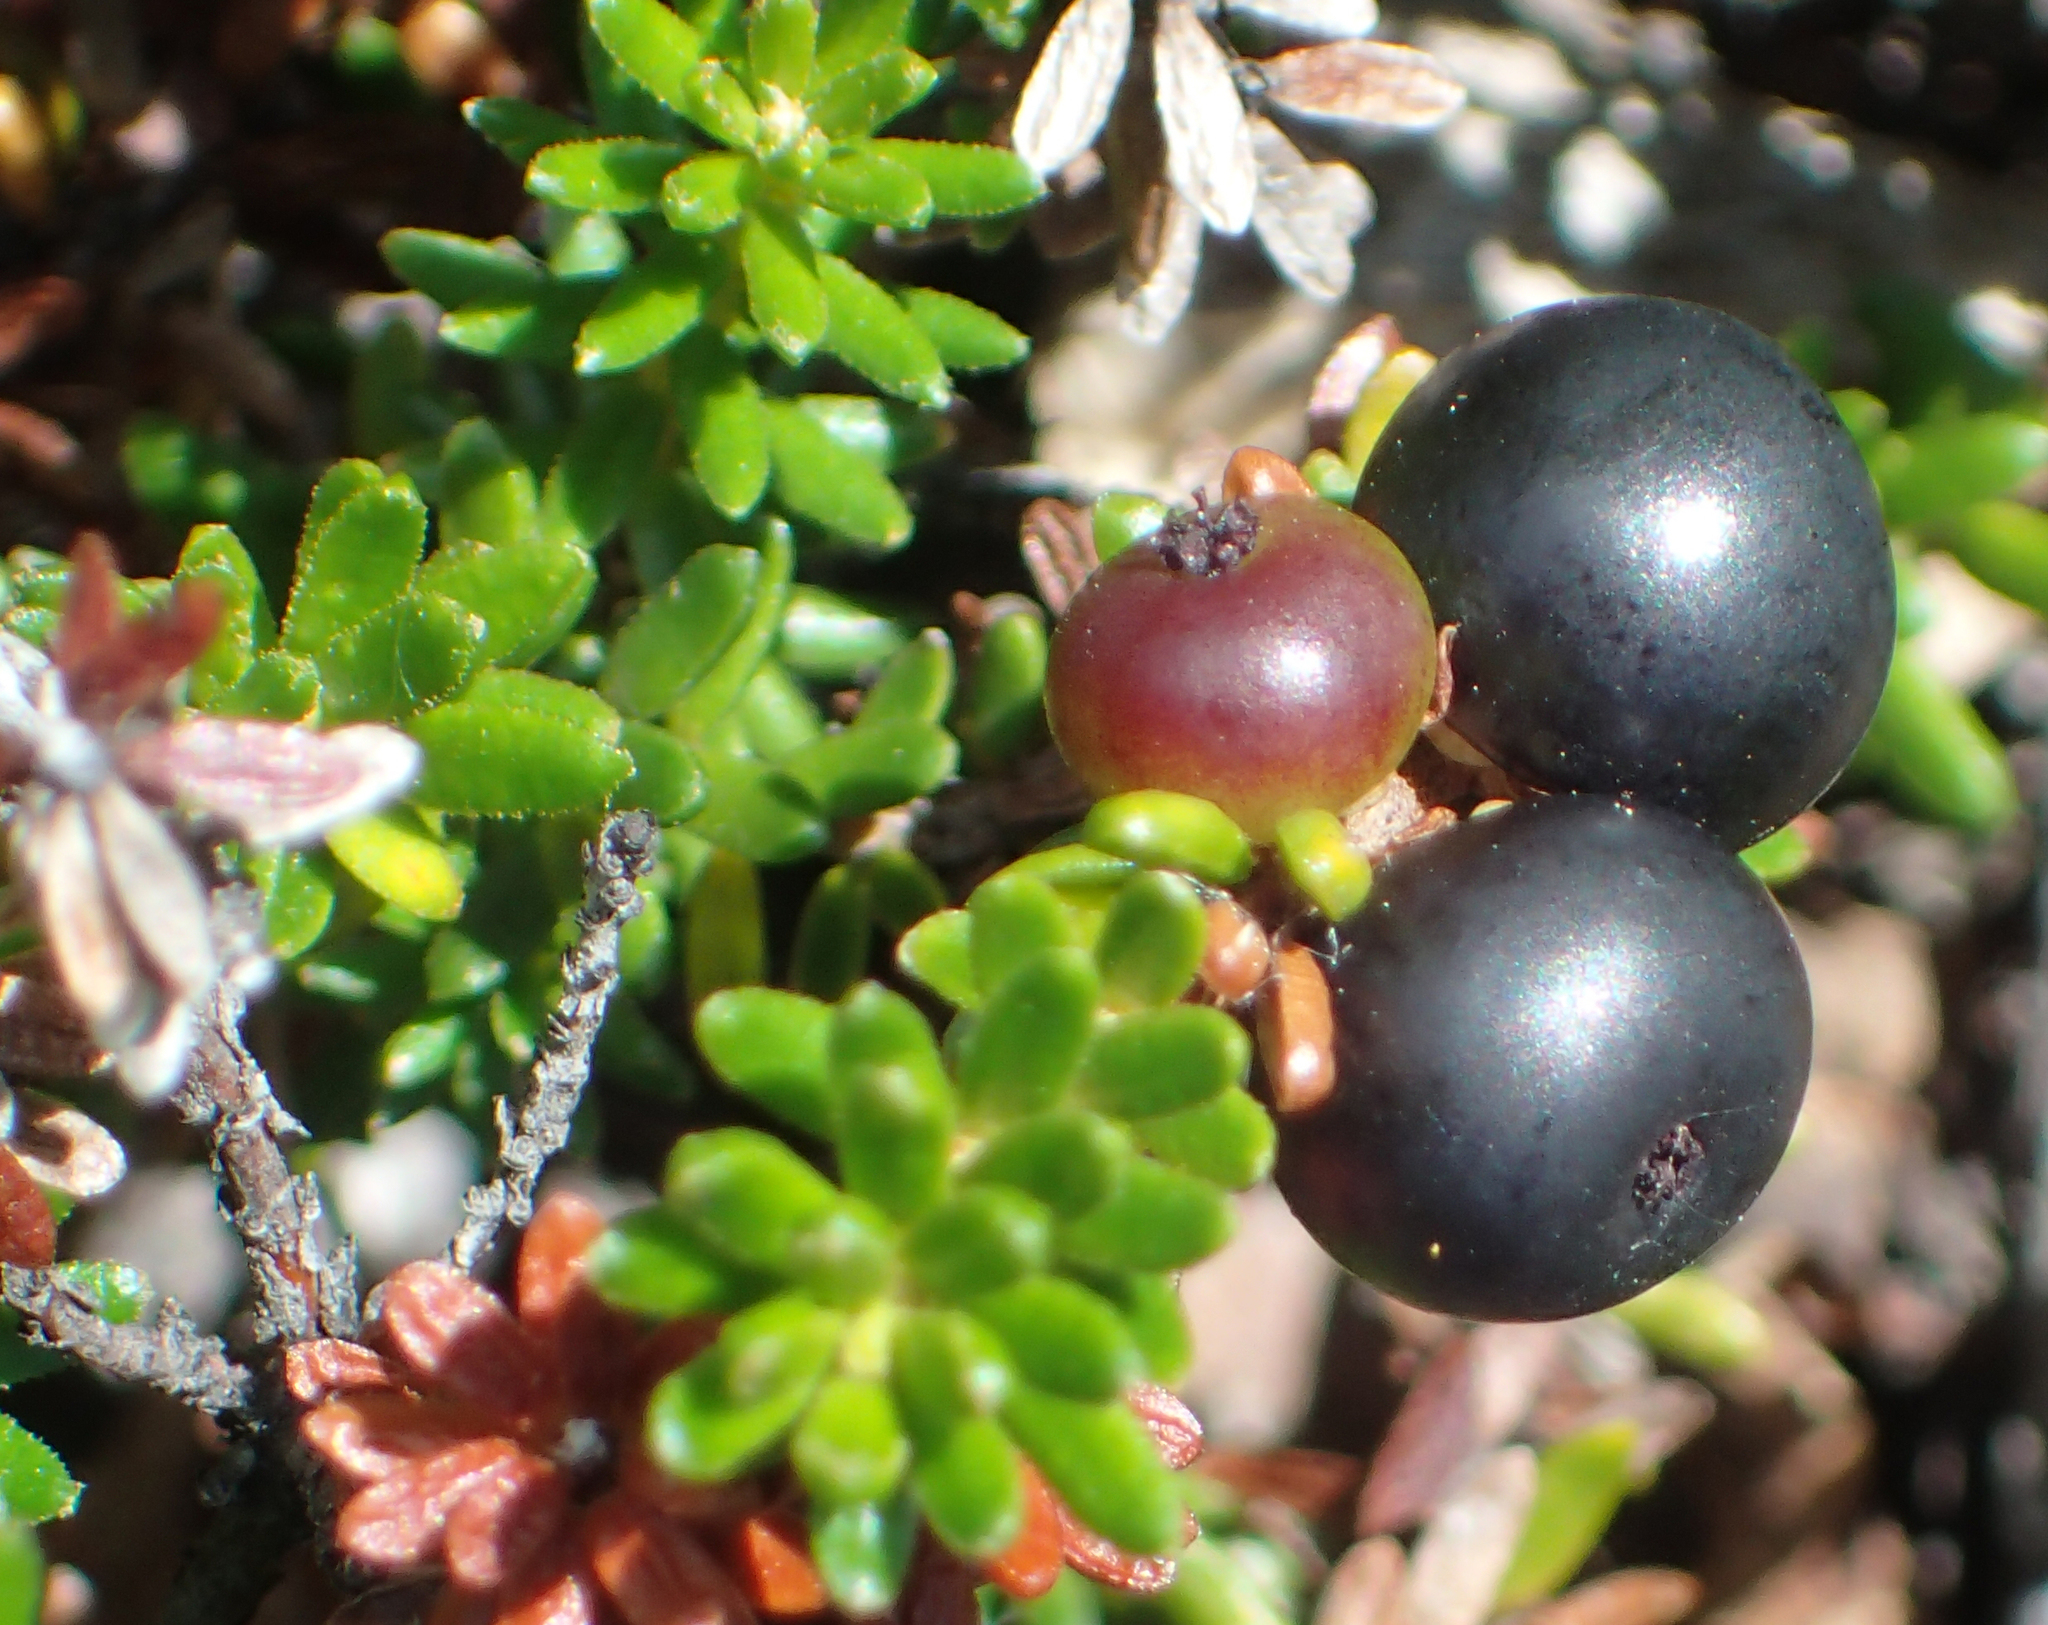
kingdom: Plantae
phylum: Tracheophyta
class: Magnoliopsida
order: Ericales
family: Ericaceae
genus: Empetrum
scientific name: Empetrum nigrum
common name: Black crowberry
